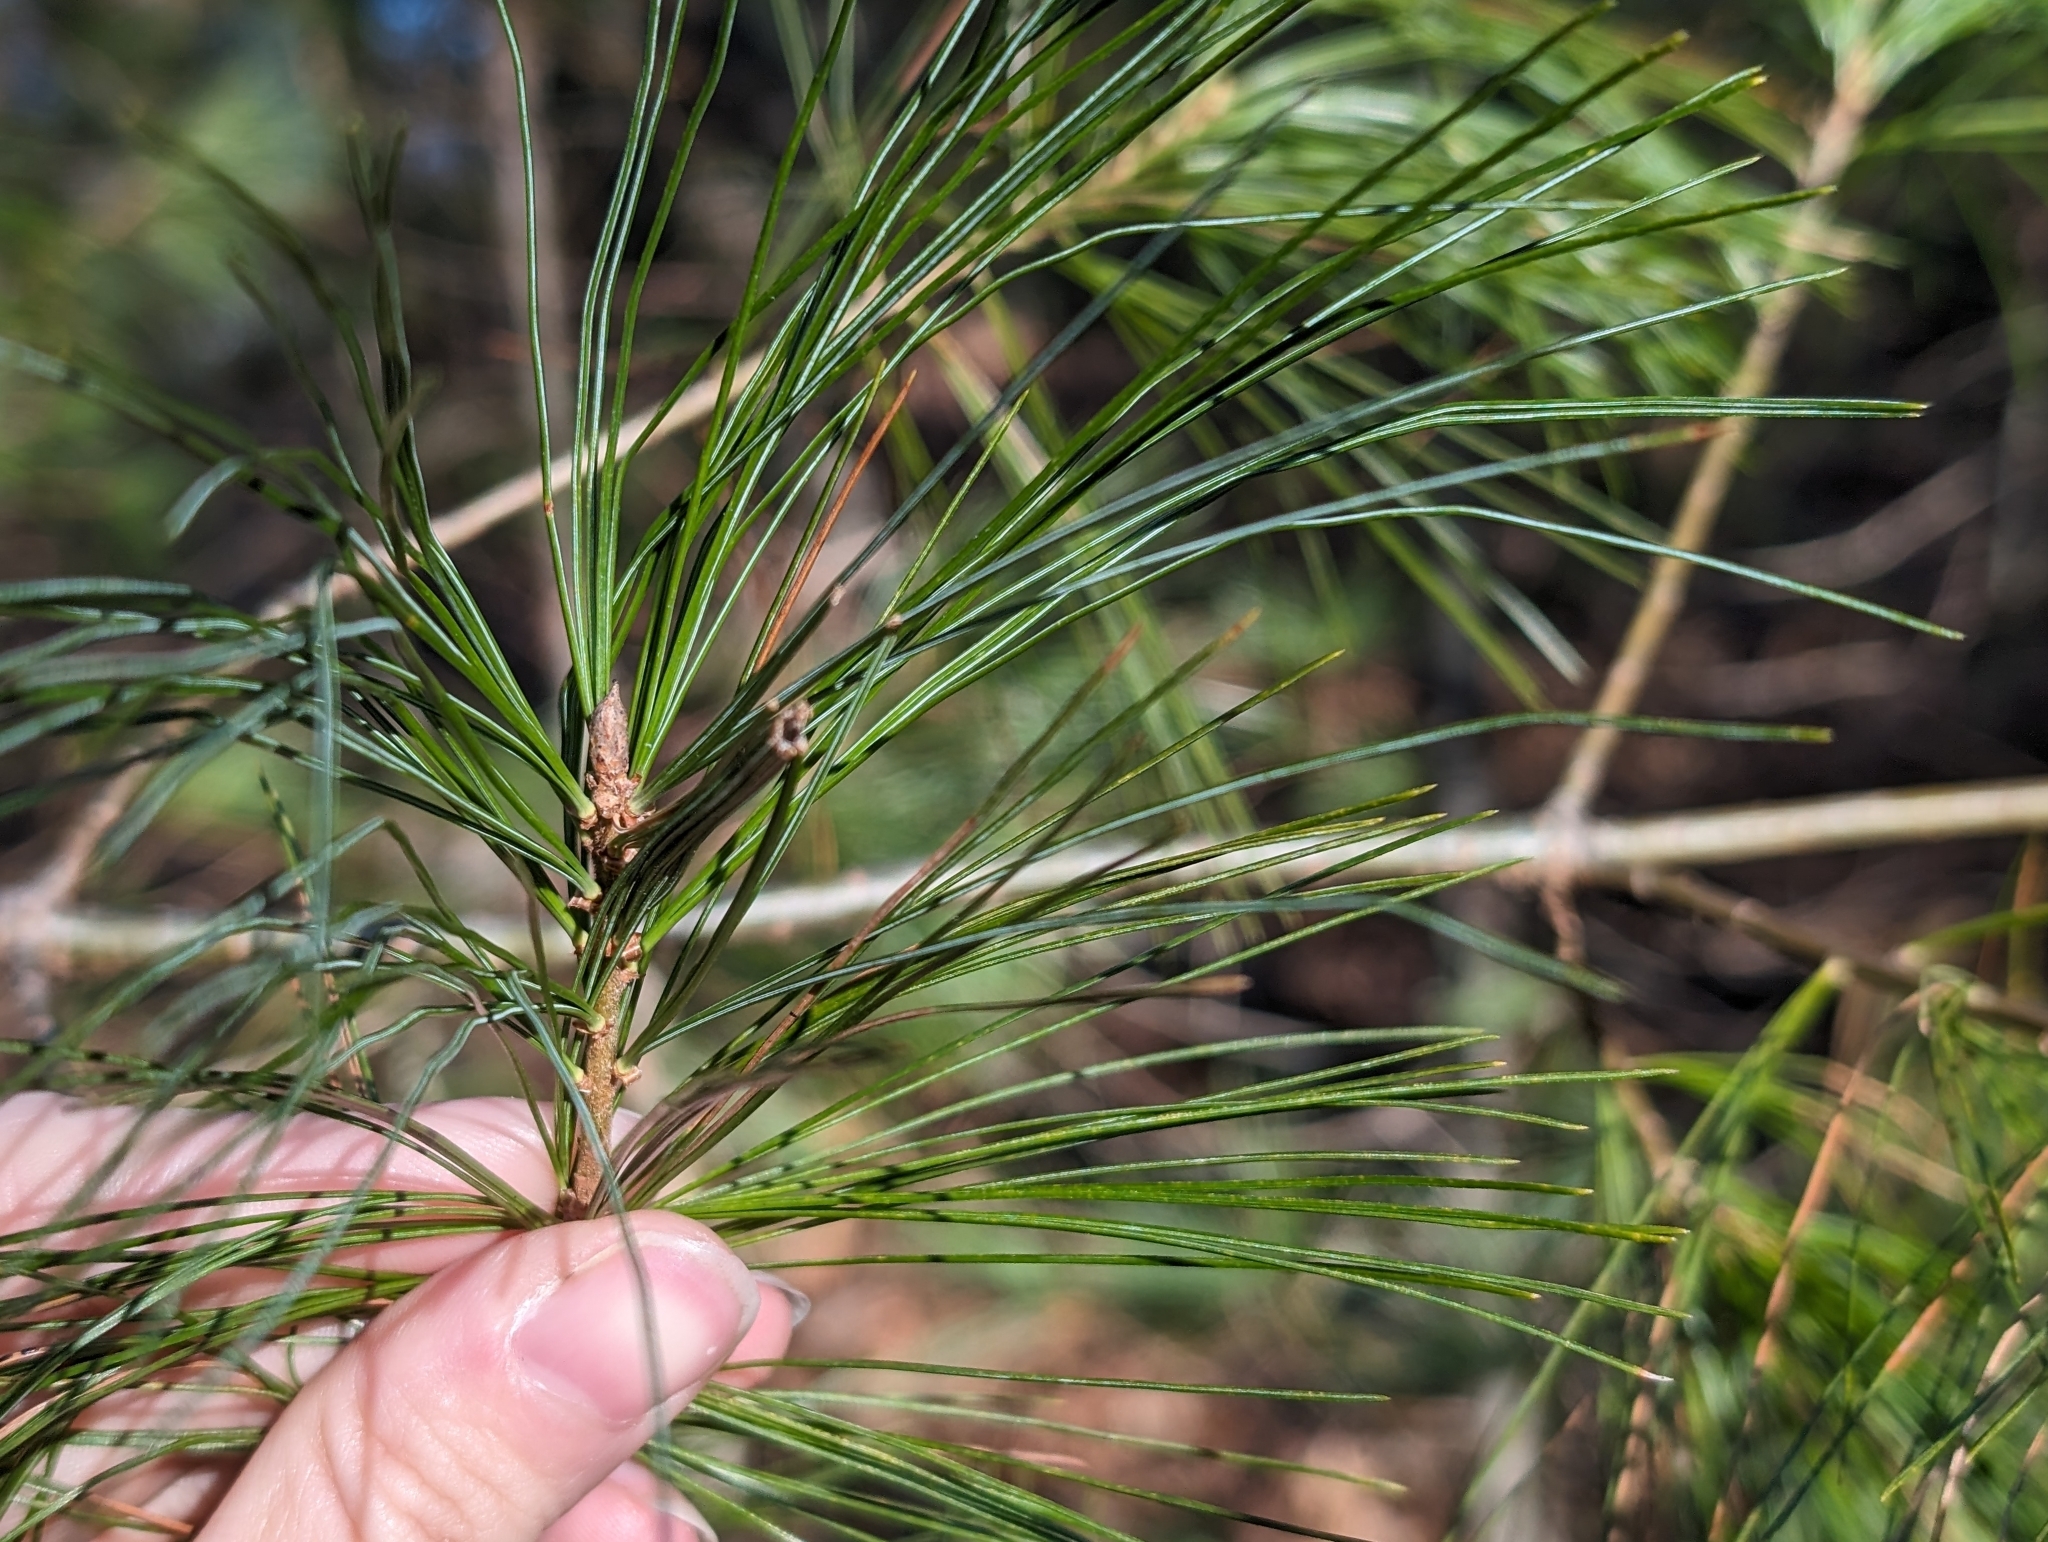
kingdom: Animalia
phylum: Arthropoda
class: Insecta
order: Lepidoptera
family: Tortricidae
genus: Argyrotaenia
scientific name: Argyrotaenia pinatubana
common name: Pine tube moth
